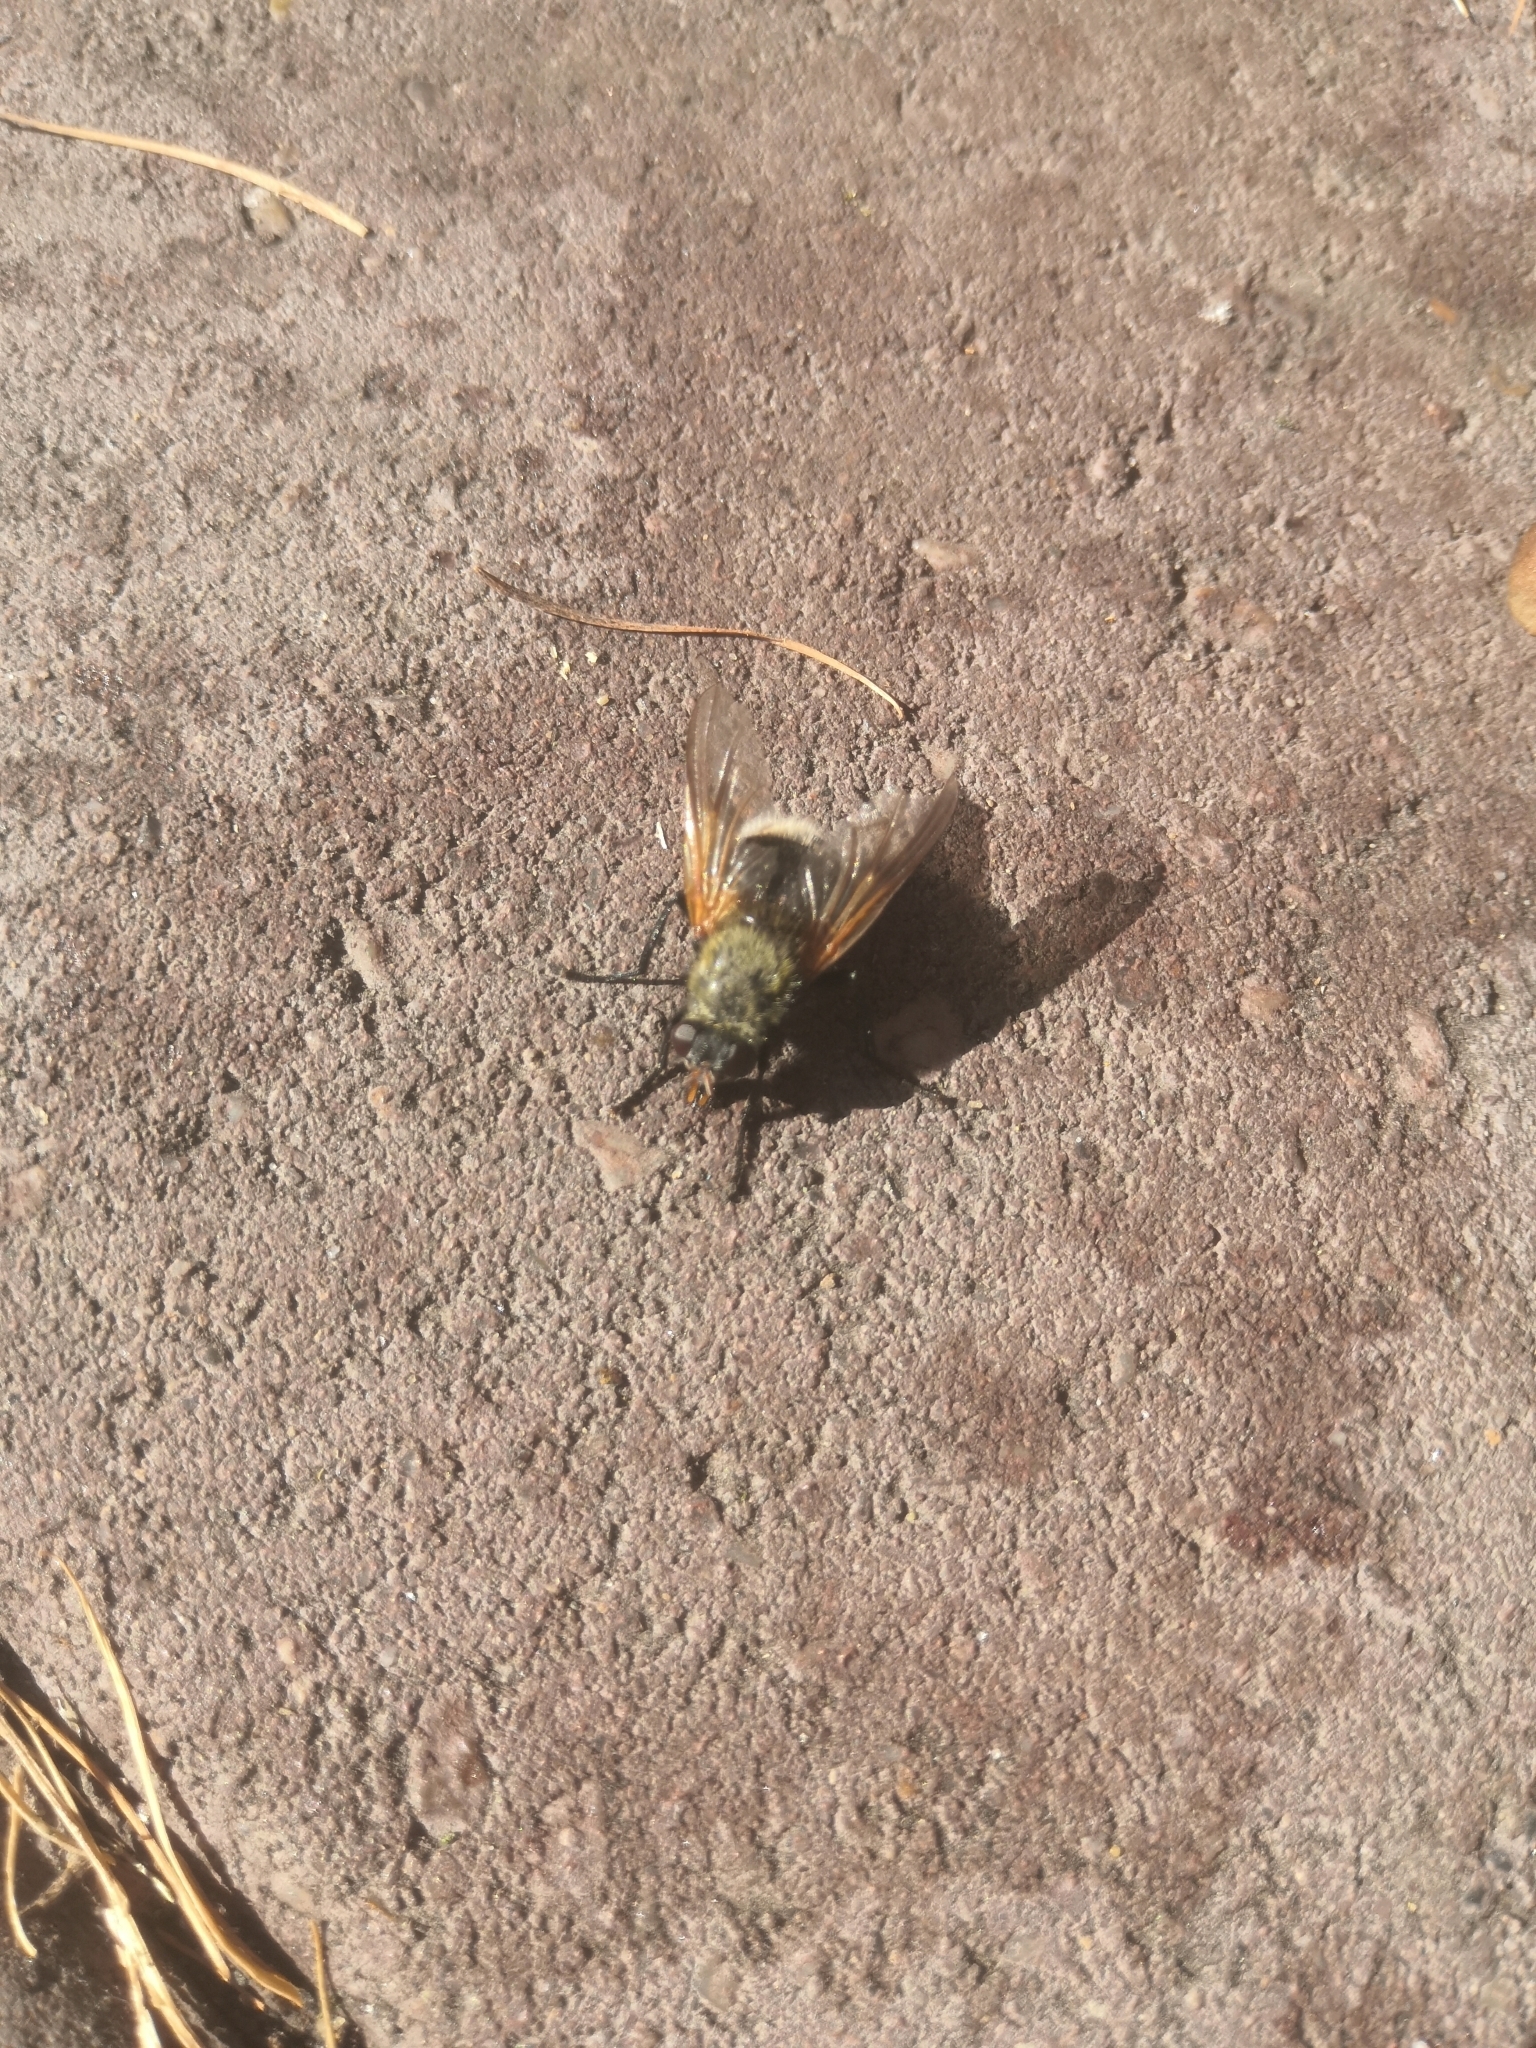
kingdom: Animalia
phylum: Arthropoda
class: Insecta
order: Diptera
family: Muscidae
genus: Mesembrina
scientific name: Mesembrina mystacea
